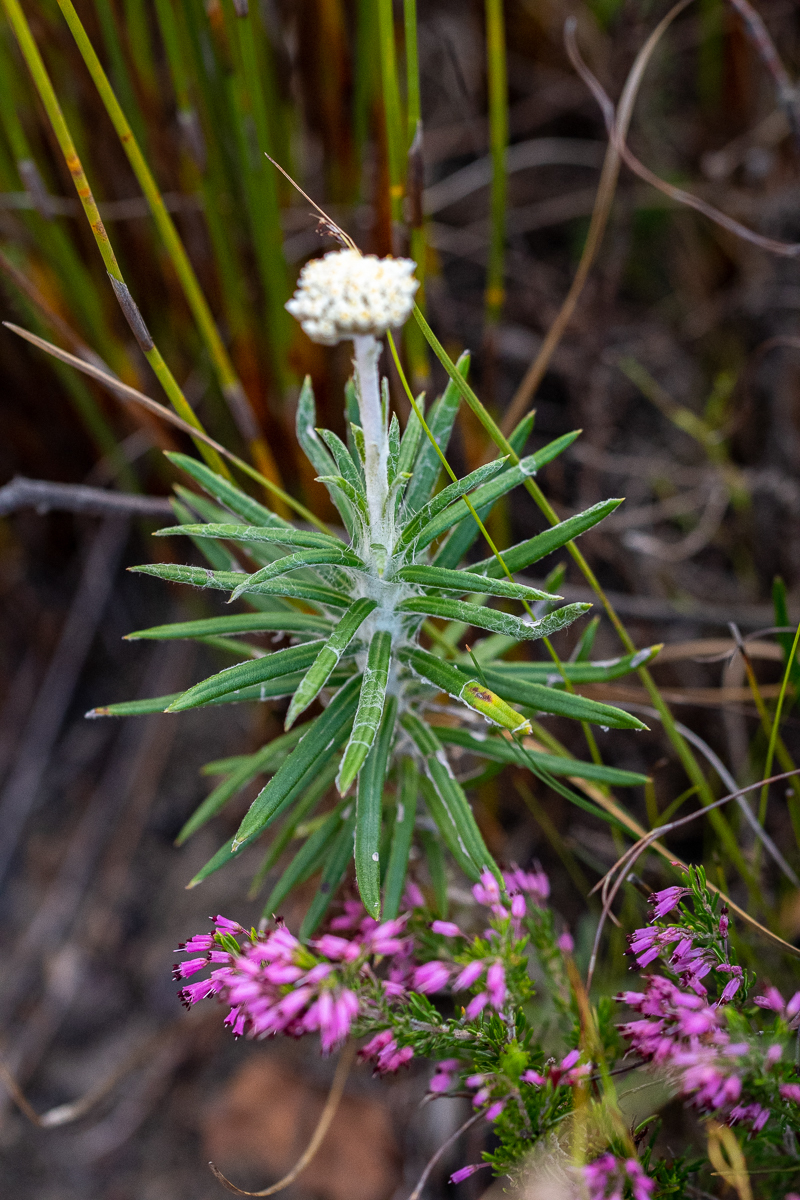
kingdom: Plantae
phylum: Tracheophyta
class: Magnoliopsida
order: Asterales
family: Asteraceae
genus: Anaxeton
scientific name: Anaxeton asperum
